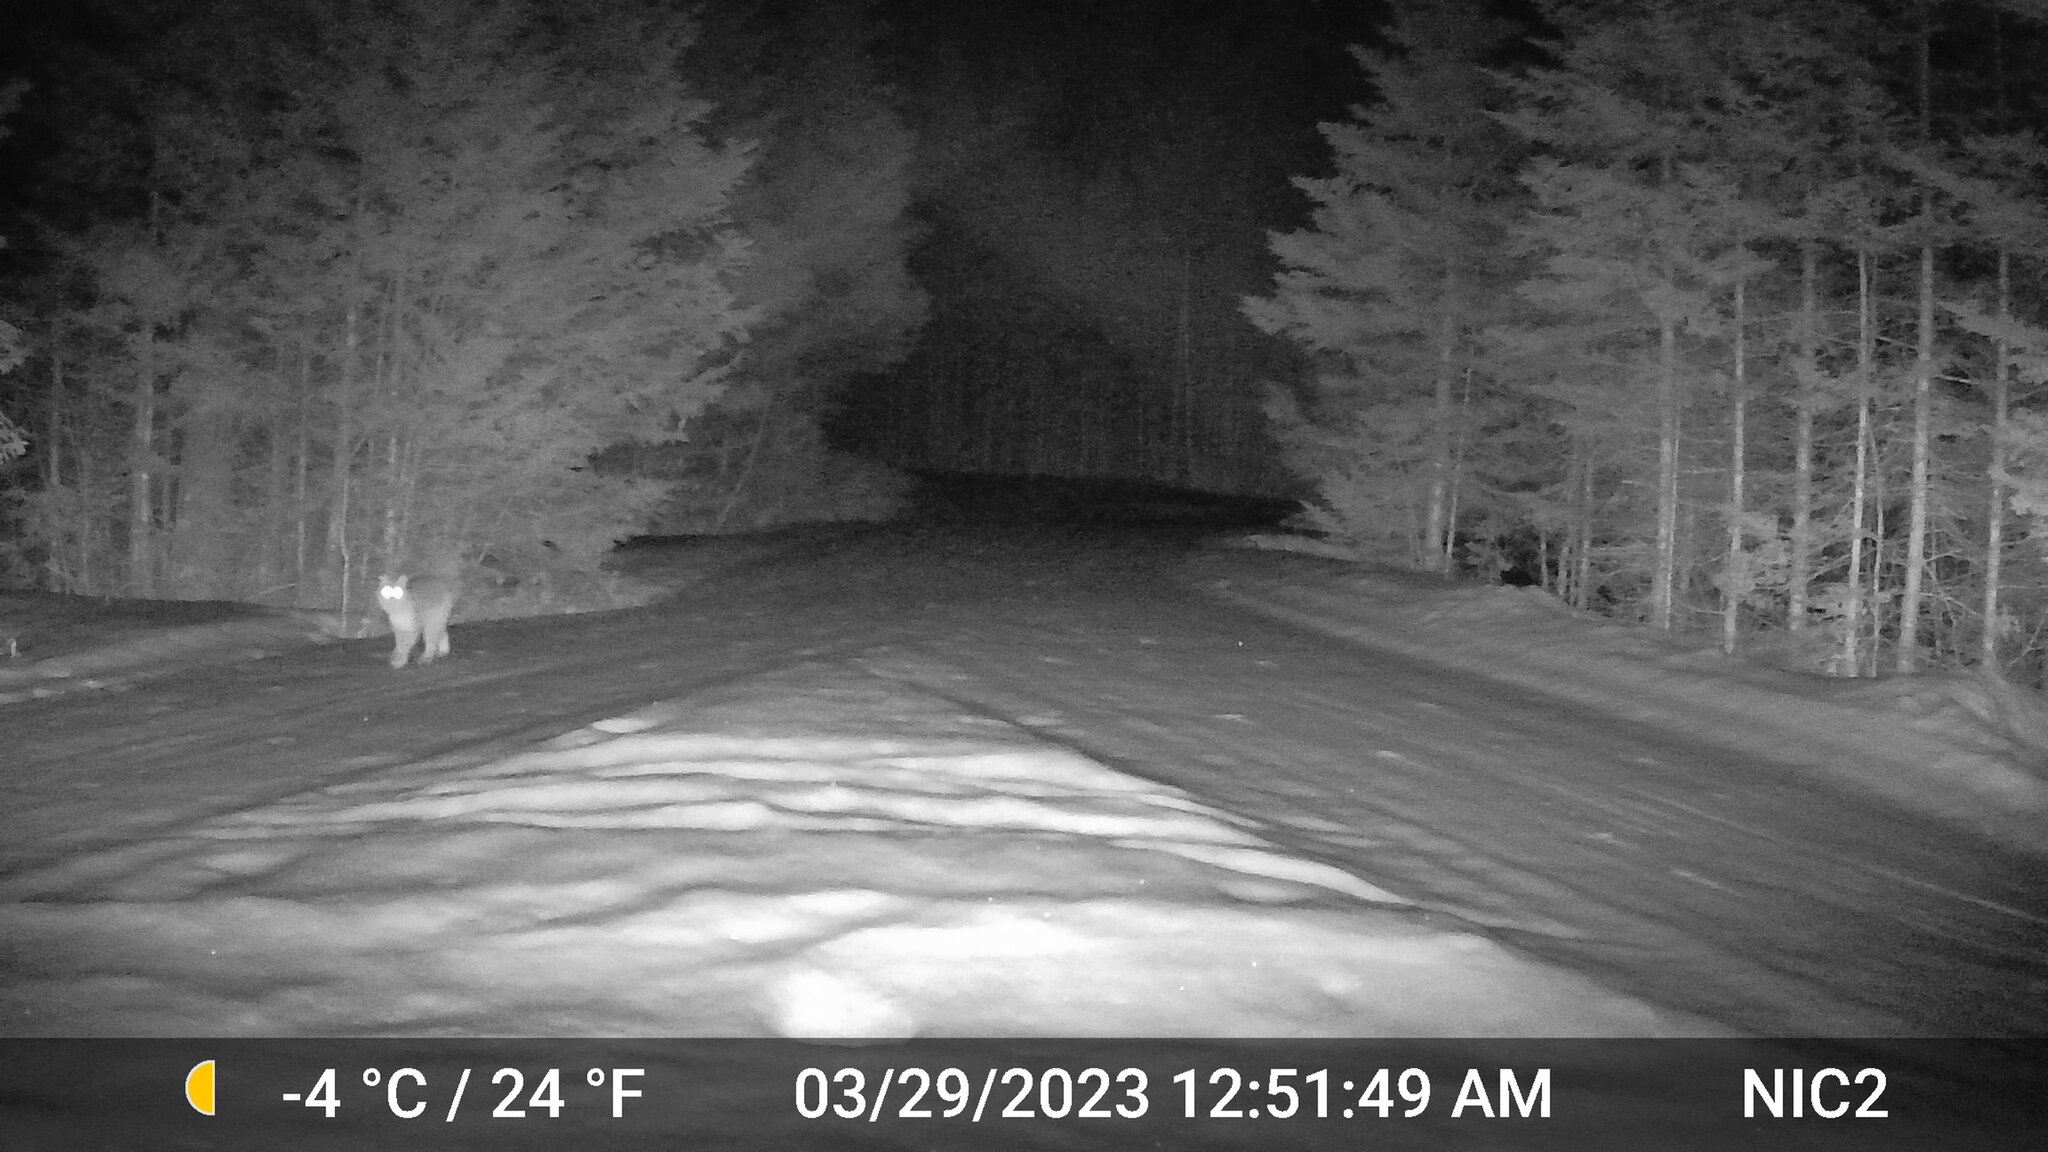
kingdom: Animalia
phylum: Chordata
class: Mammalia
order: Carnivora
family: Felidae
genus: Lynx
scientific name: Lynx rufus
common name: Bobcat
